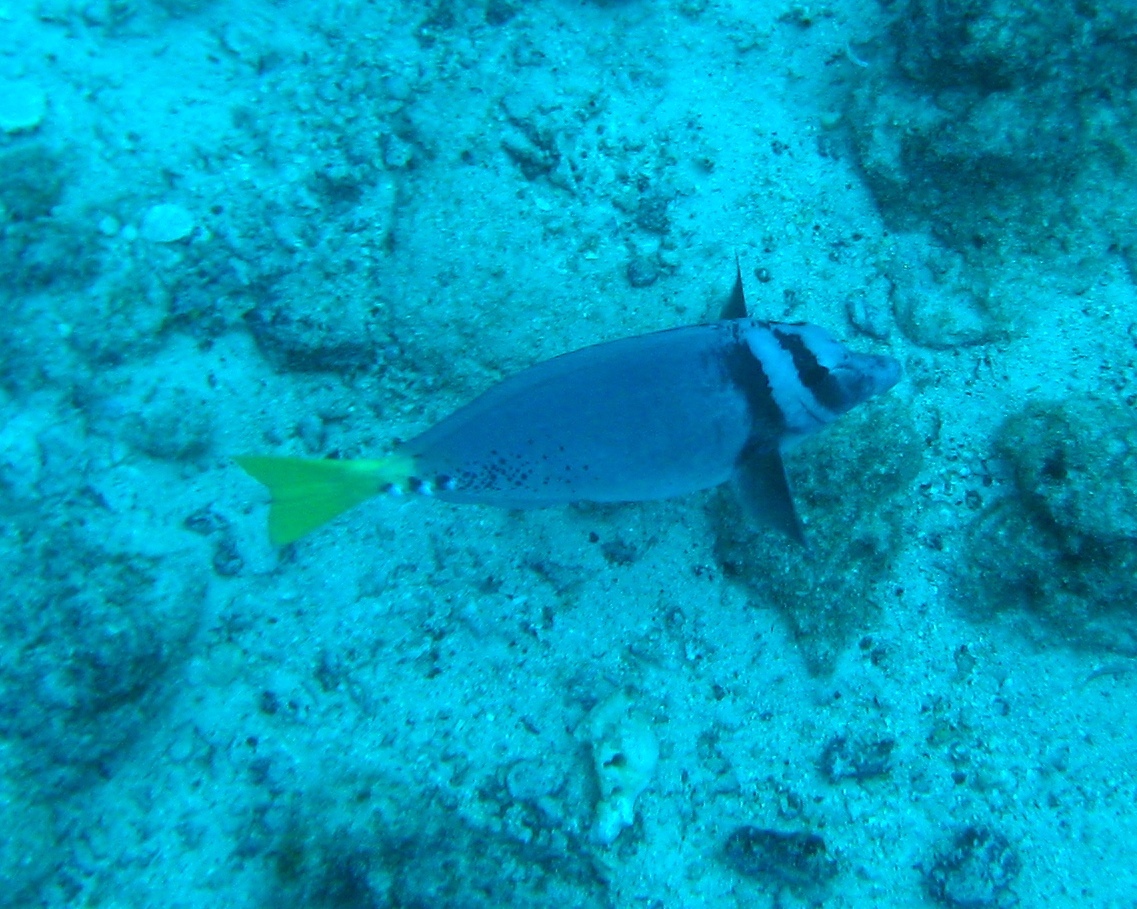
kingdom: Animalia
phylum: Chordata
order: Perciformes
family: Acanthuridae
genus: Prionurus
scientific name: Prionurus laticlavius
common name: Razor surgeonfish
